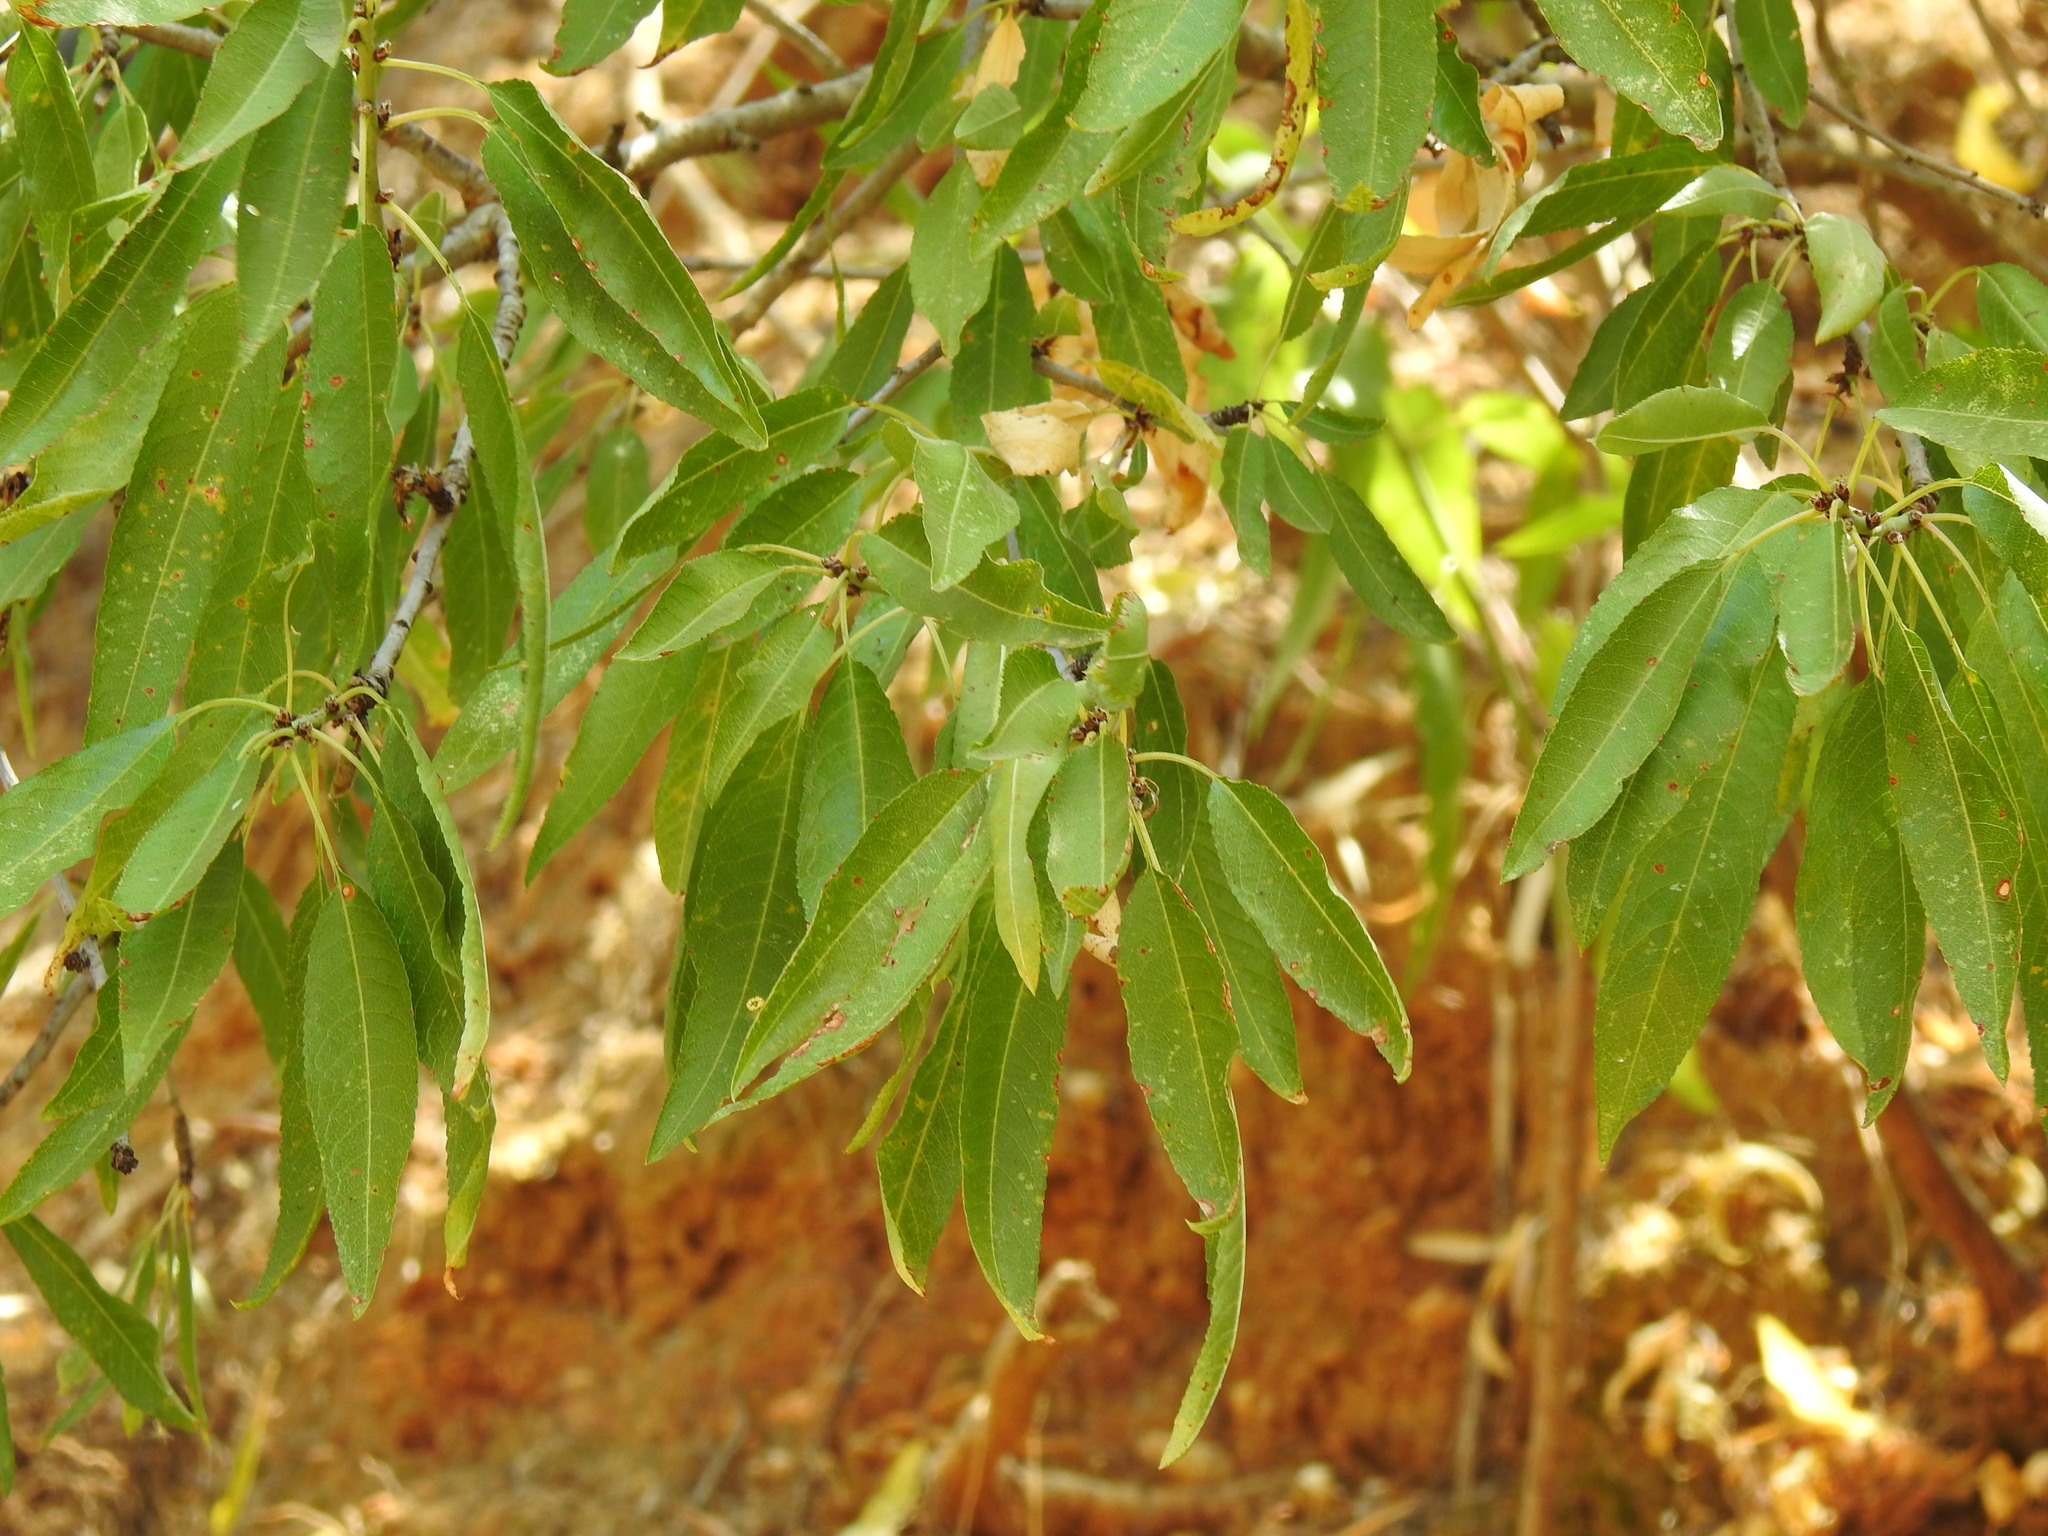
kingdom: Plantae
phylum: Tracheophyta
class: Magnoliopsida
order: Rosales
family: Rosaceae
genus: Prunus
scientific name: Prunus amygdalus
